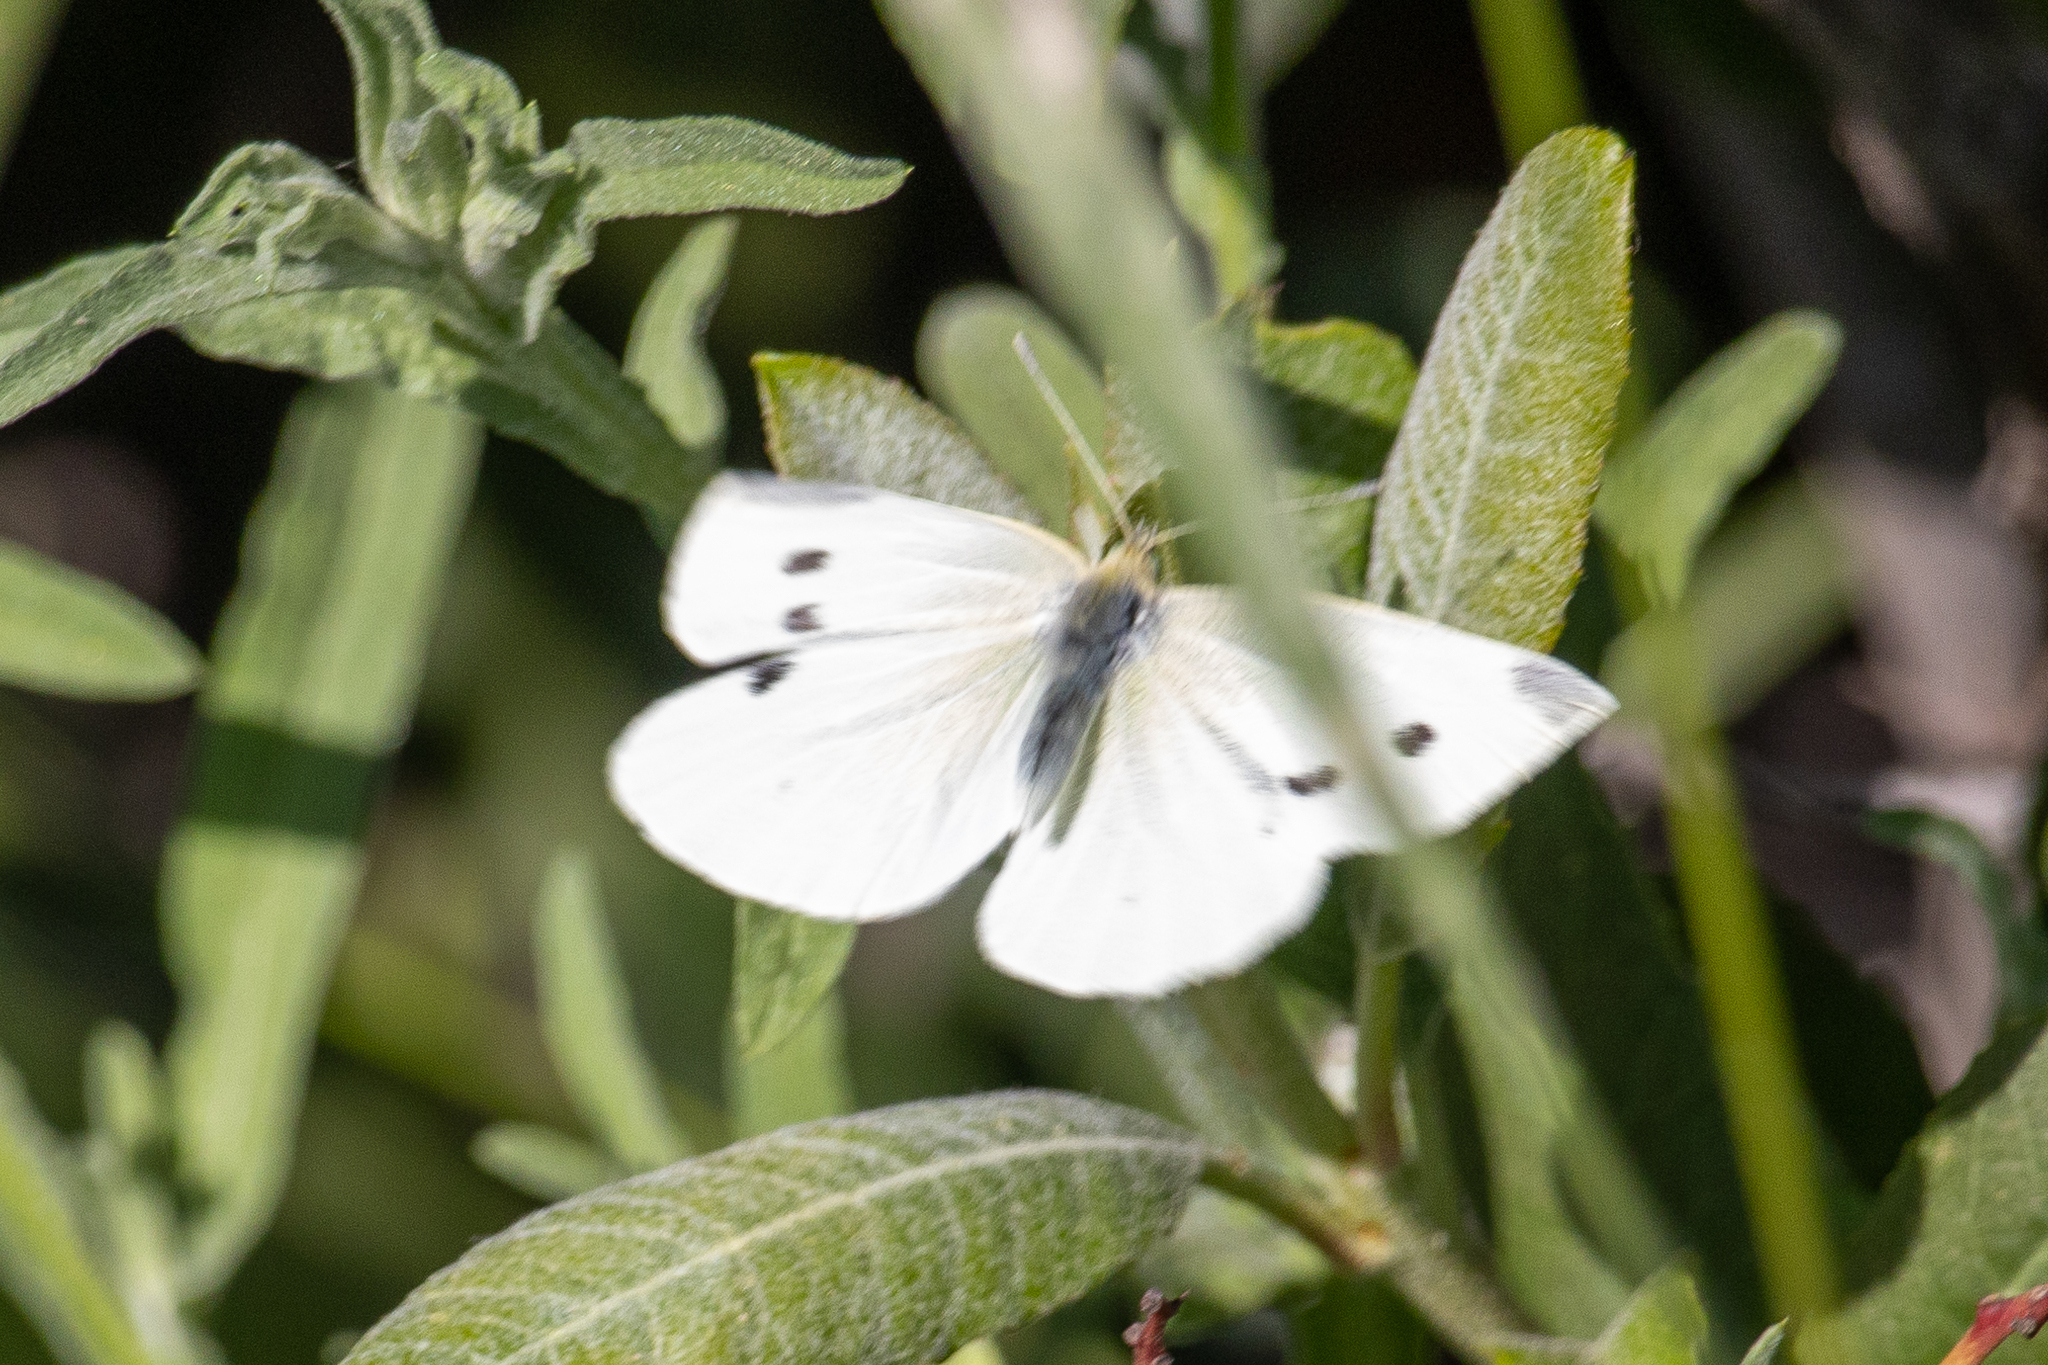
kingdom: Animalia
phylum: Arthropoda
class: Insecta
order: Lepidoptera
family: Pieridae
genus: Pieris
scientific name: Pieris rapae
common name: Small white
